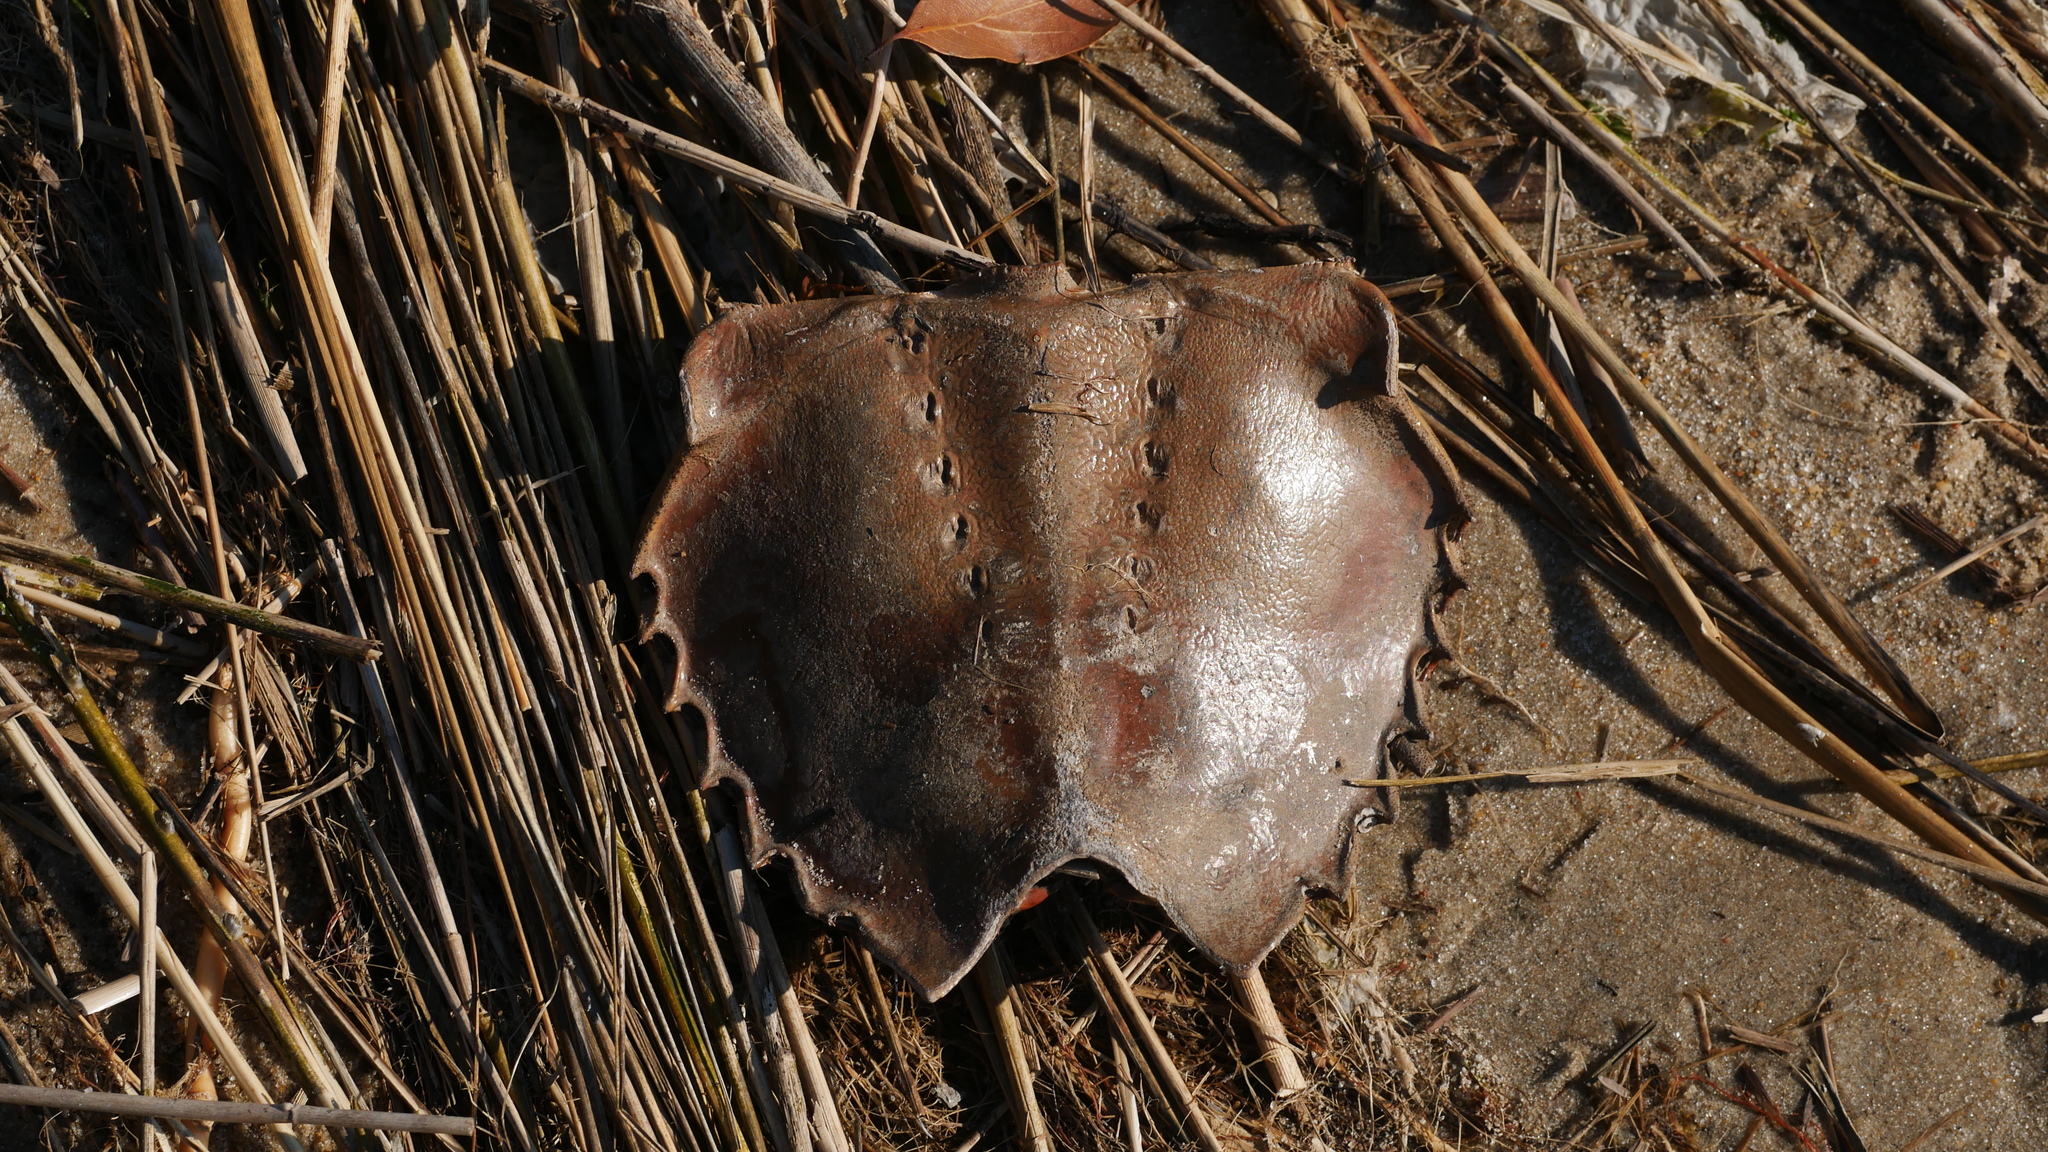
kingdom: Animalia
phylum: Arthropoda
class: Merostomata
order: Xiphosurida
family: Limulidae
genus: Limulus
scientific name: Limulus polyphemus
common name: Horseshoe crab
